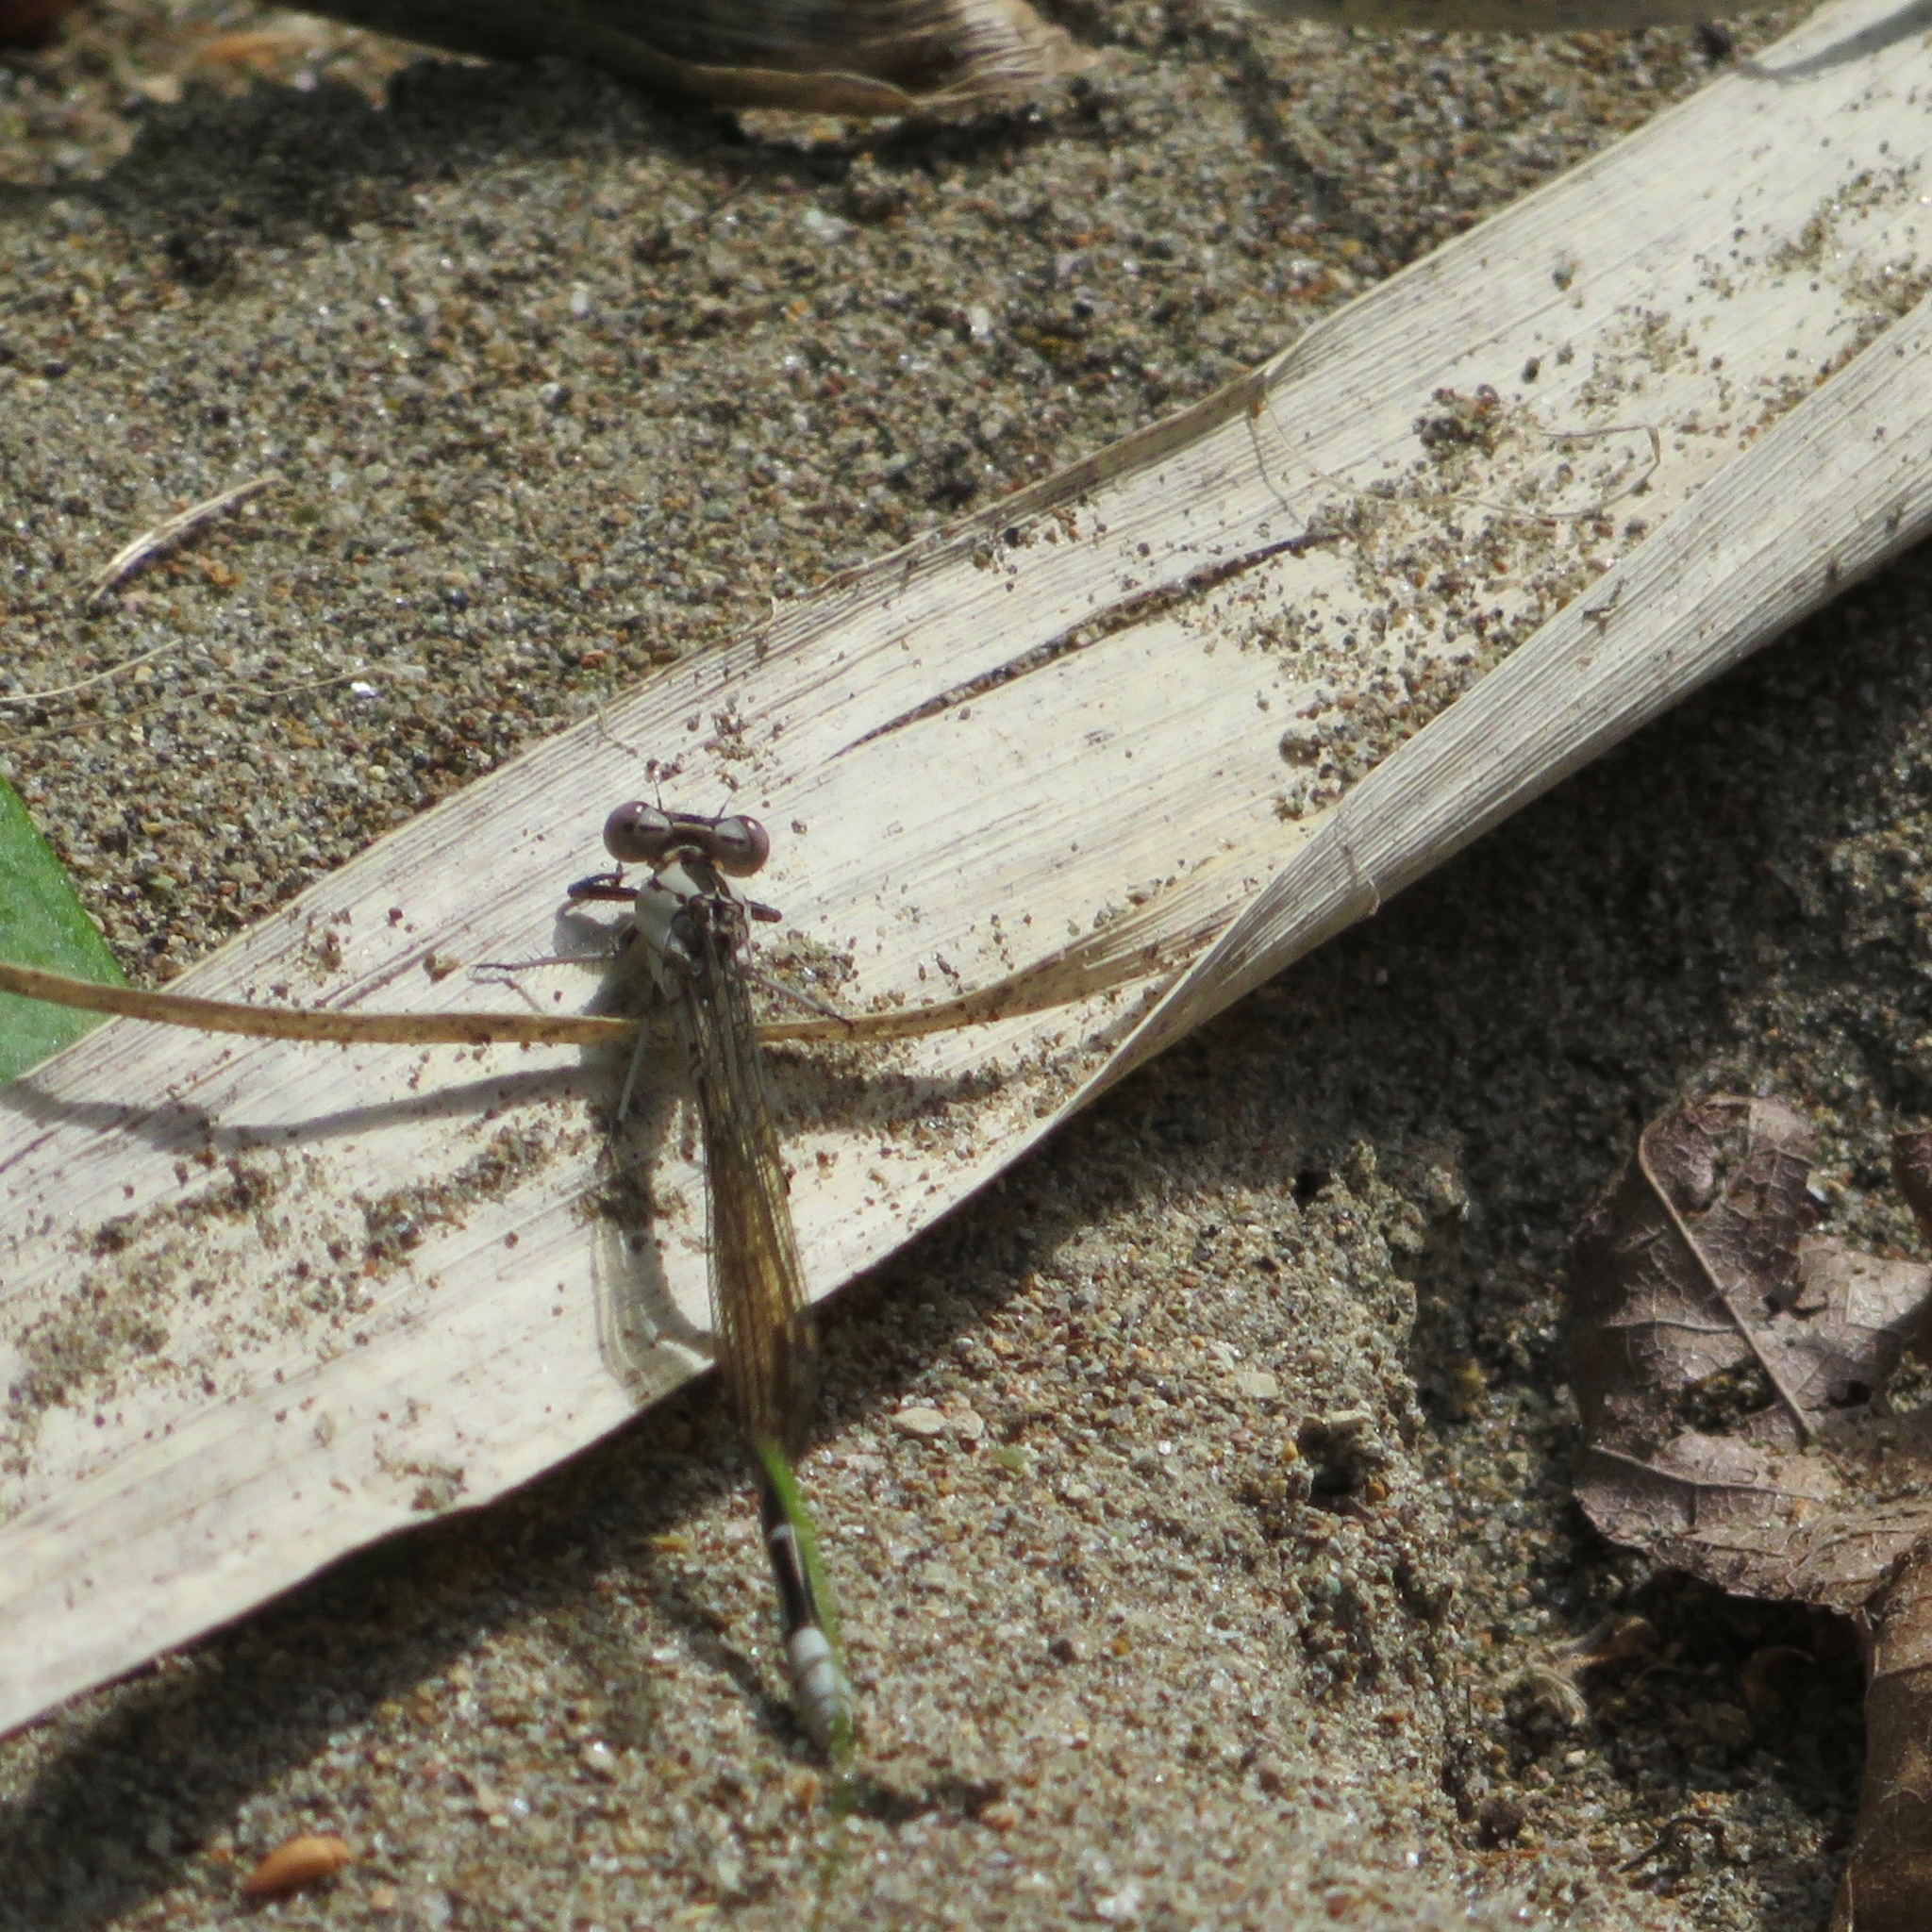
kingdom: Animalia
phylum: Arthropoda
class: Insecta
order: Odonata
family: Coenagrionidae
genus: Argia
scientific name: Argia vivida
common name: Vivid dancer
